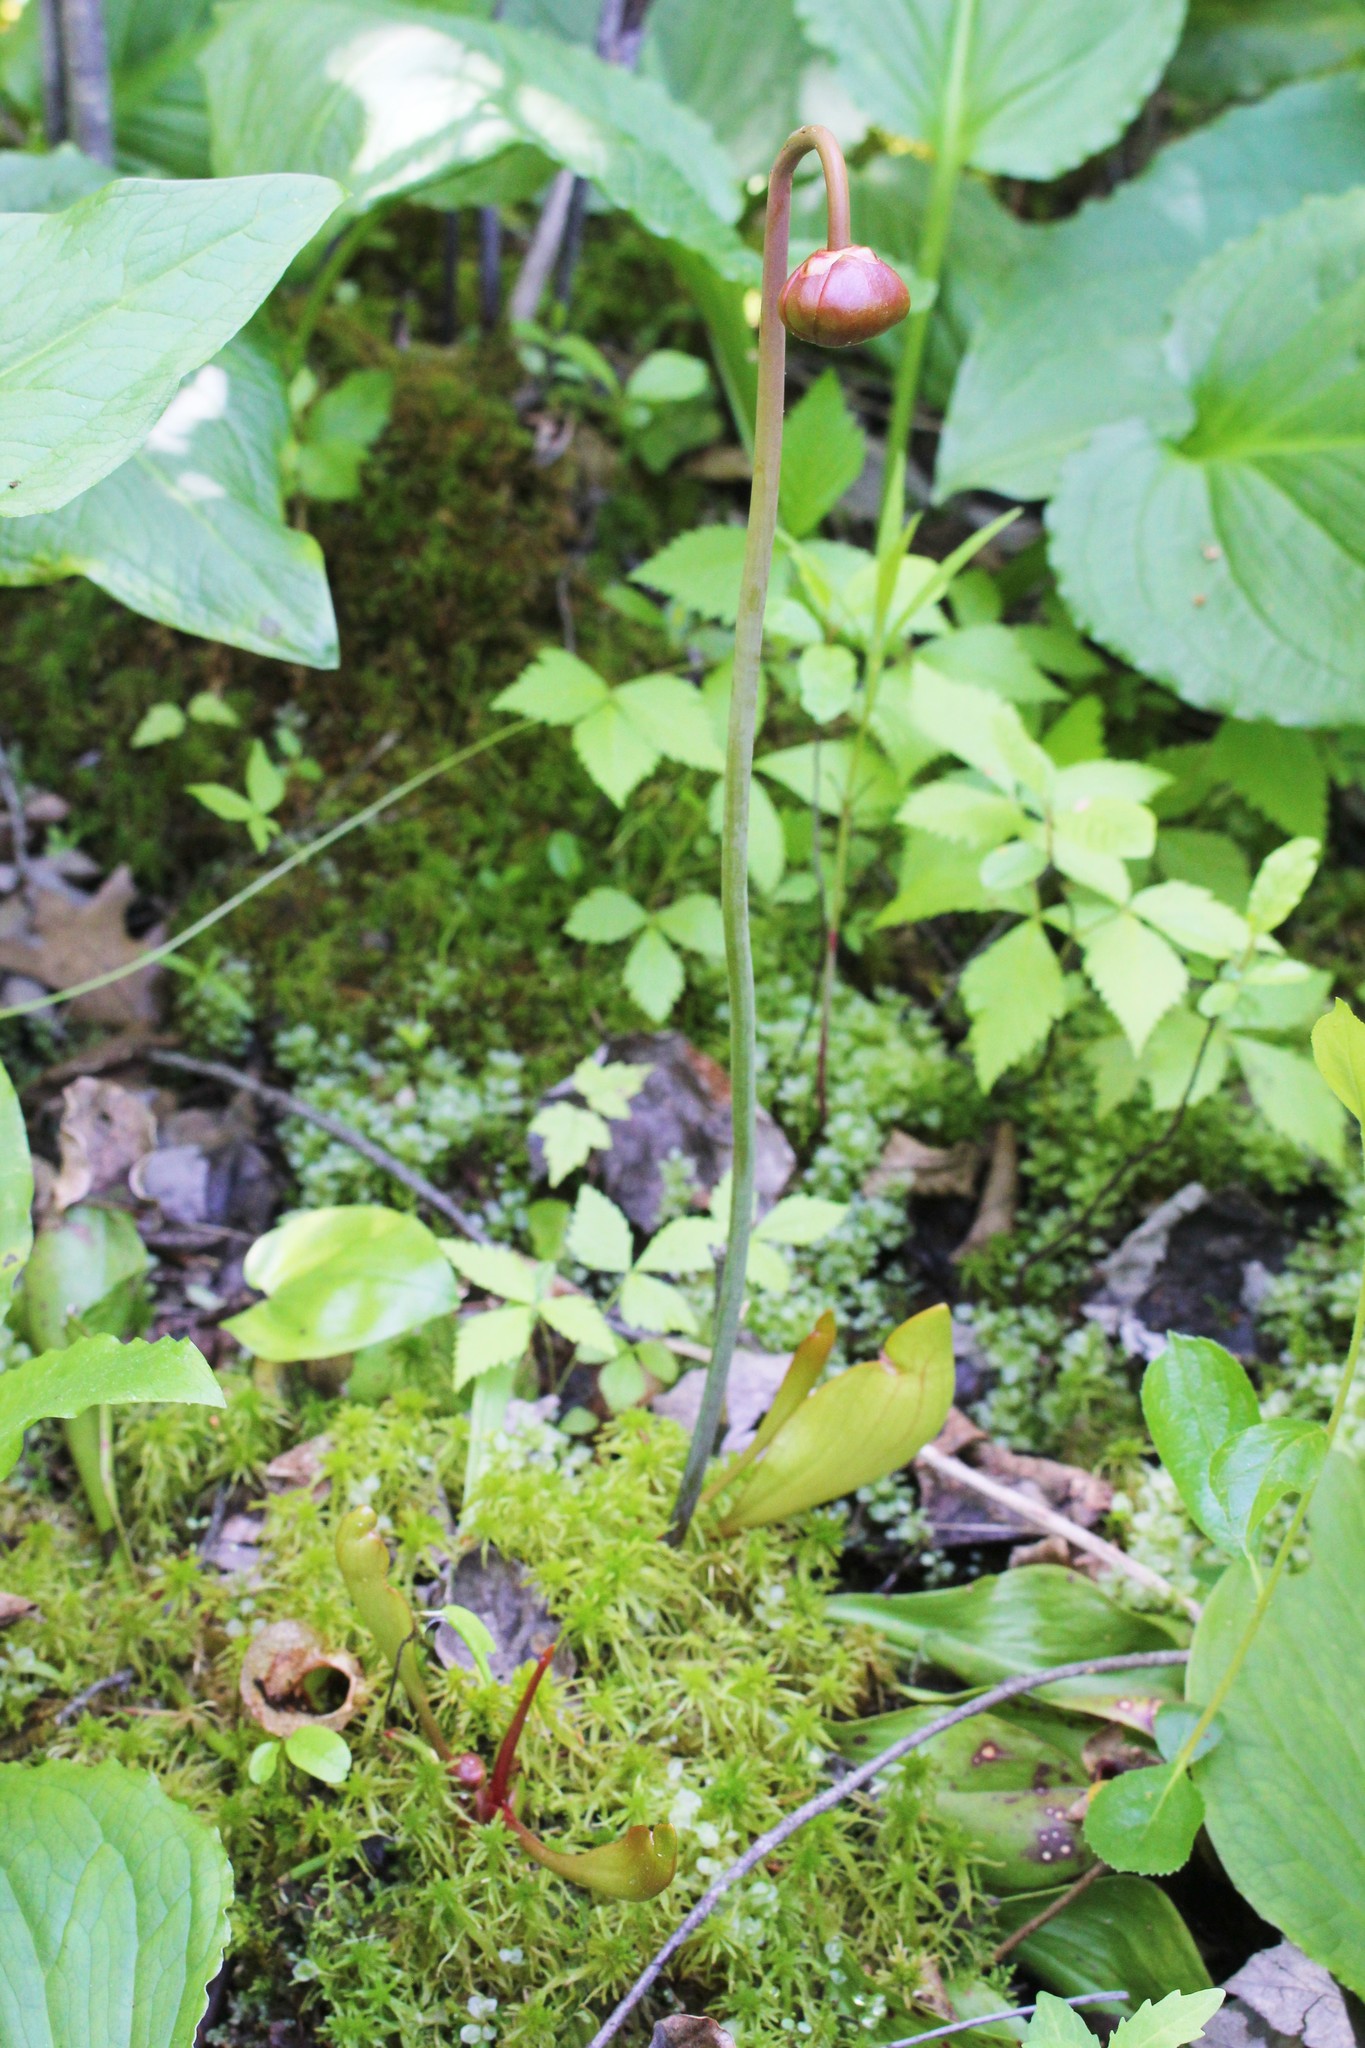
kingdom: Plantae
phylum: Tracheophyta
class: Magnoliopsida
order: Ericales
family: Sarraceniaceae
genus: Sarracenia
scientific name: Sarracenia purpurea
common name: Pitcherplant
